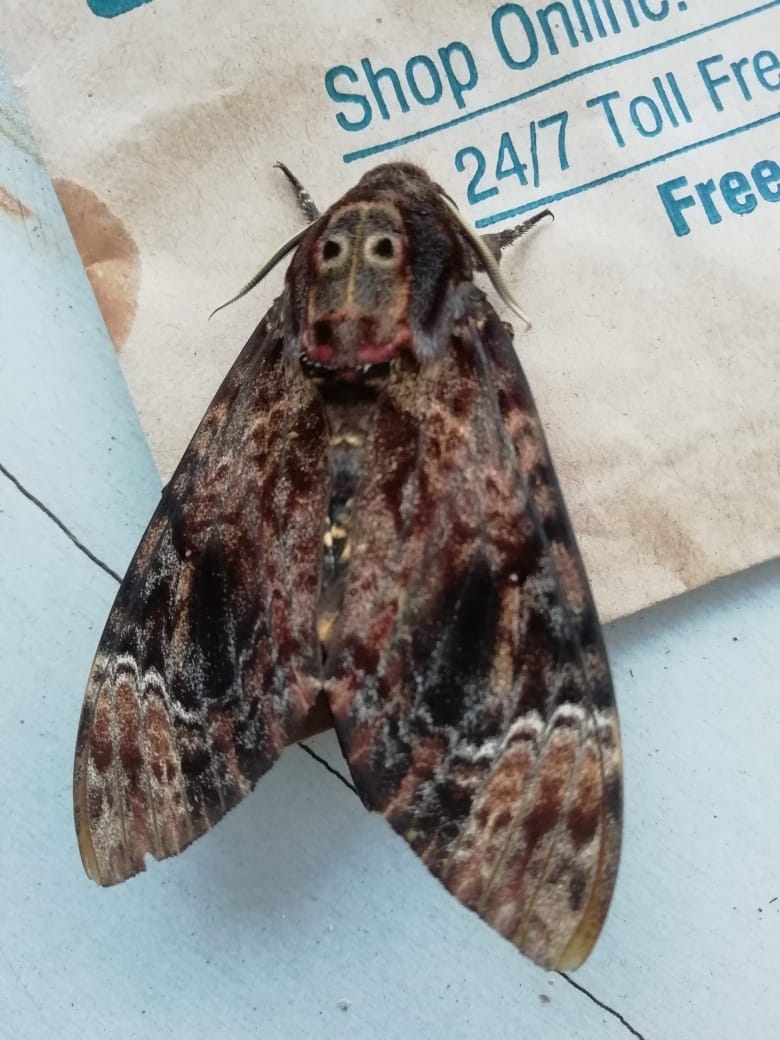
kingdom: Animalia
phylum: Arthropoda
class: Insecta
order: Lepidoptera
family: Sphingidae
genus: Acherontia
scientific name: Acherontia lachesis
